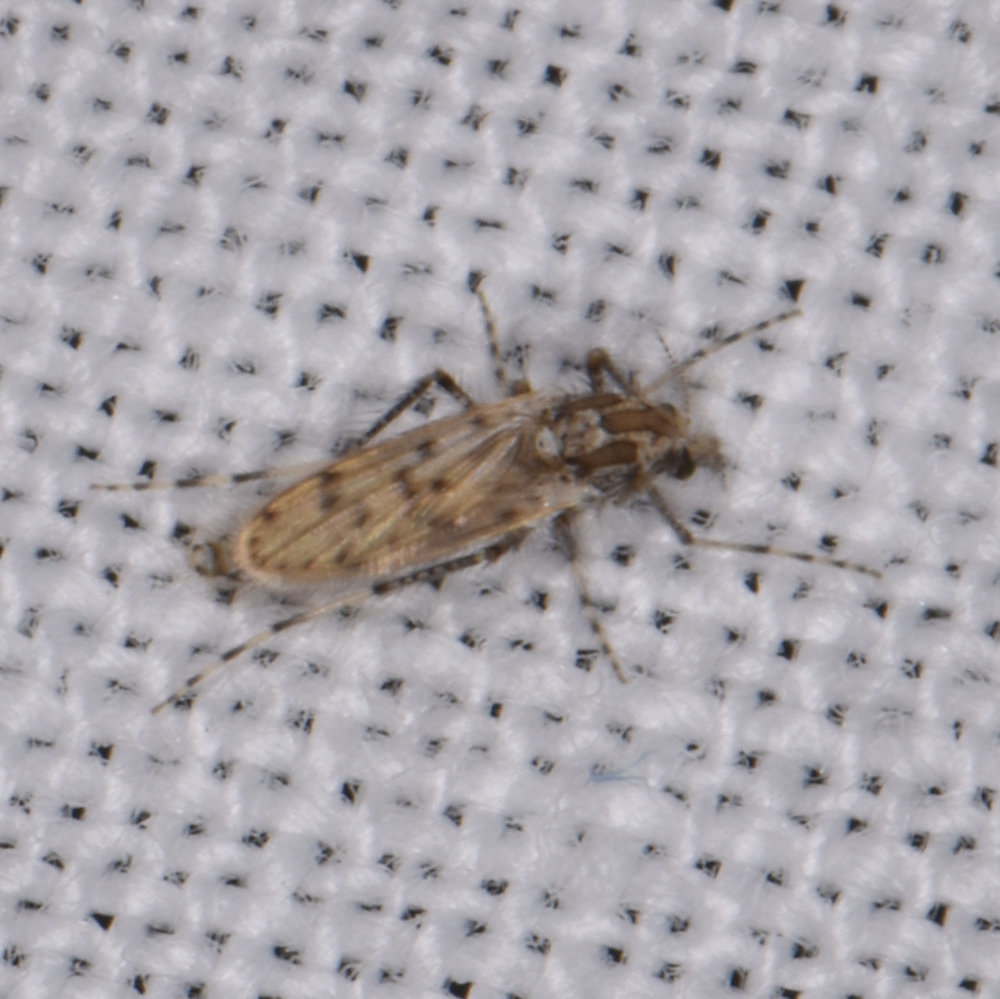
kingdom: Animalia
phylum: Arthropoda
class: Insecta
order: Diptera
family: Chaoboridae
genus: Chaoborus
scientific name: Chaoborus punctipennis
